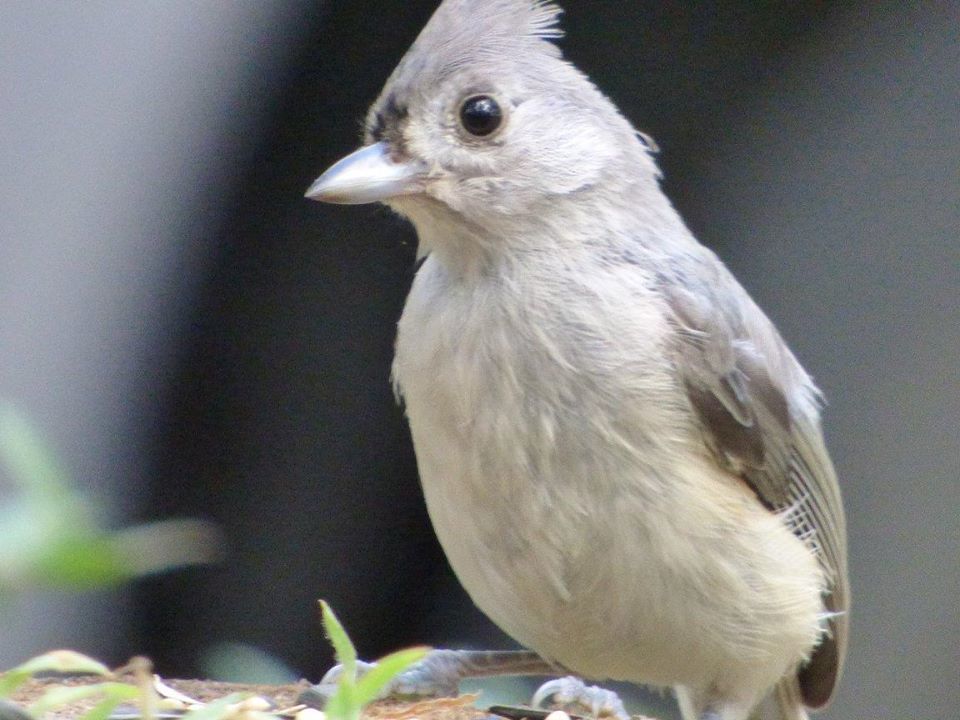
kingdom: Animalia
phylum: Chordata
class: Aves
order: Passeriformes
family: Paridae
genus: Baeolophus
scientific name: Baeolophus bicolor
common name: Tufted titmouse
